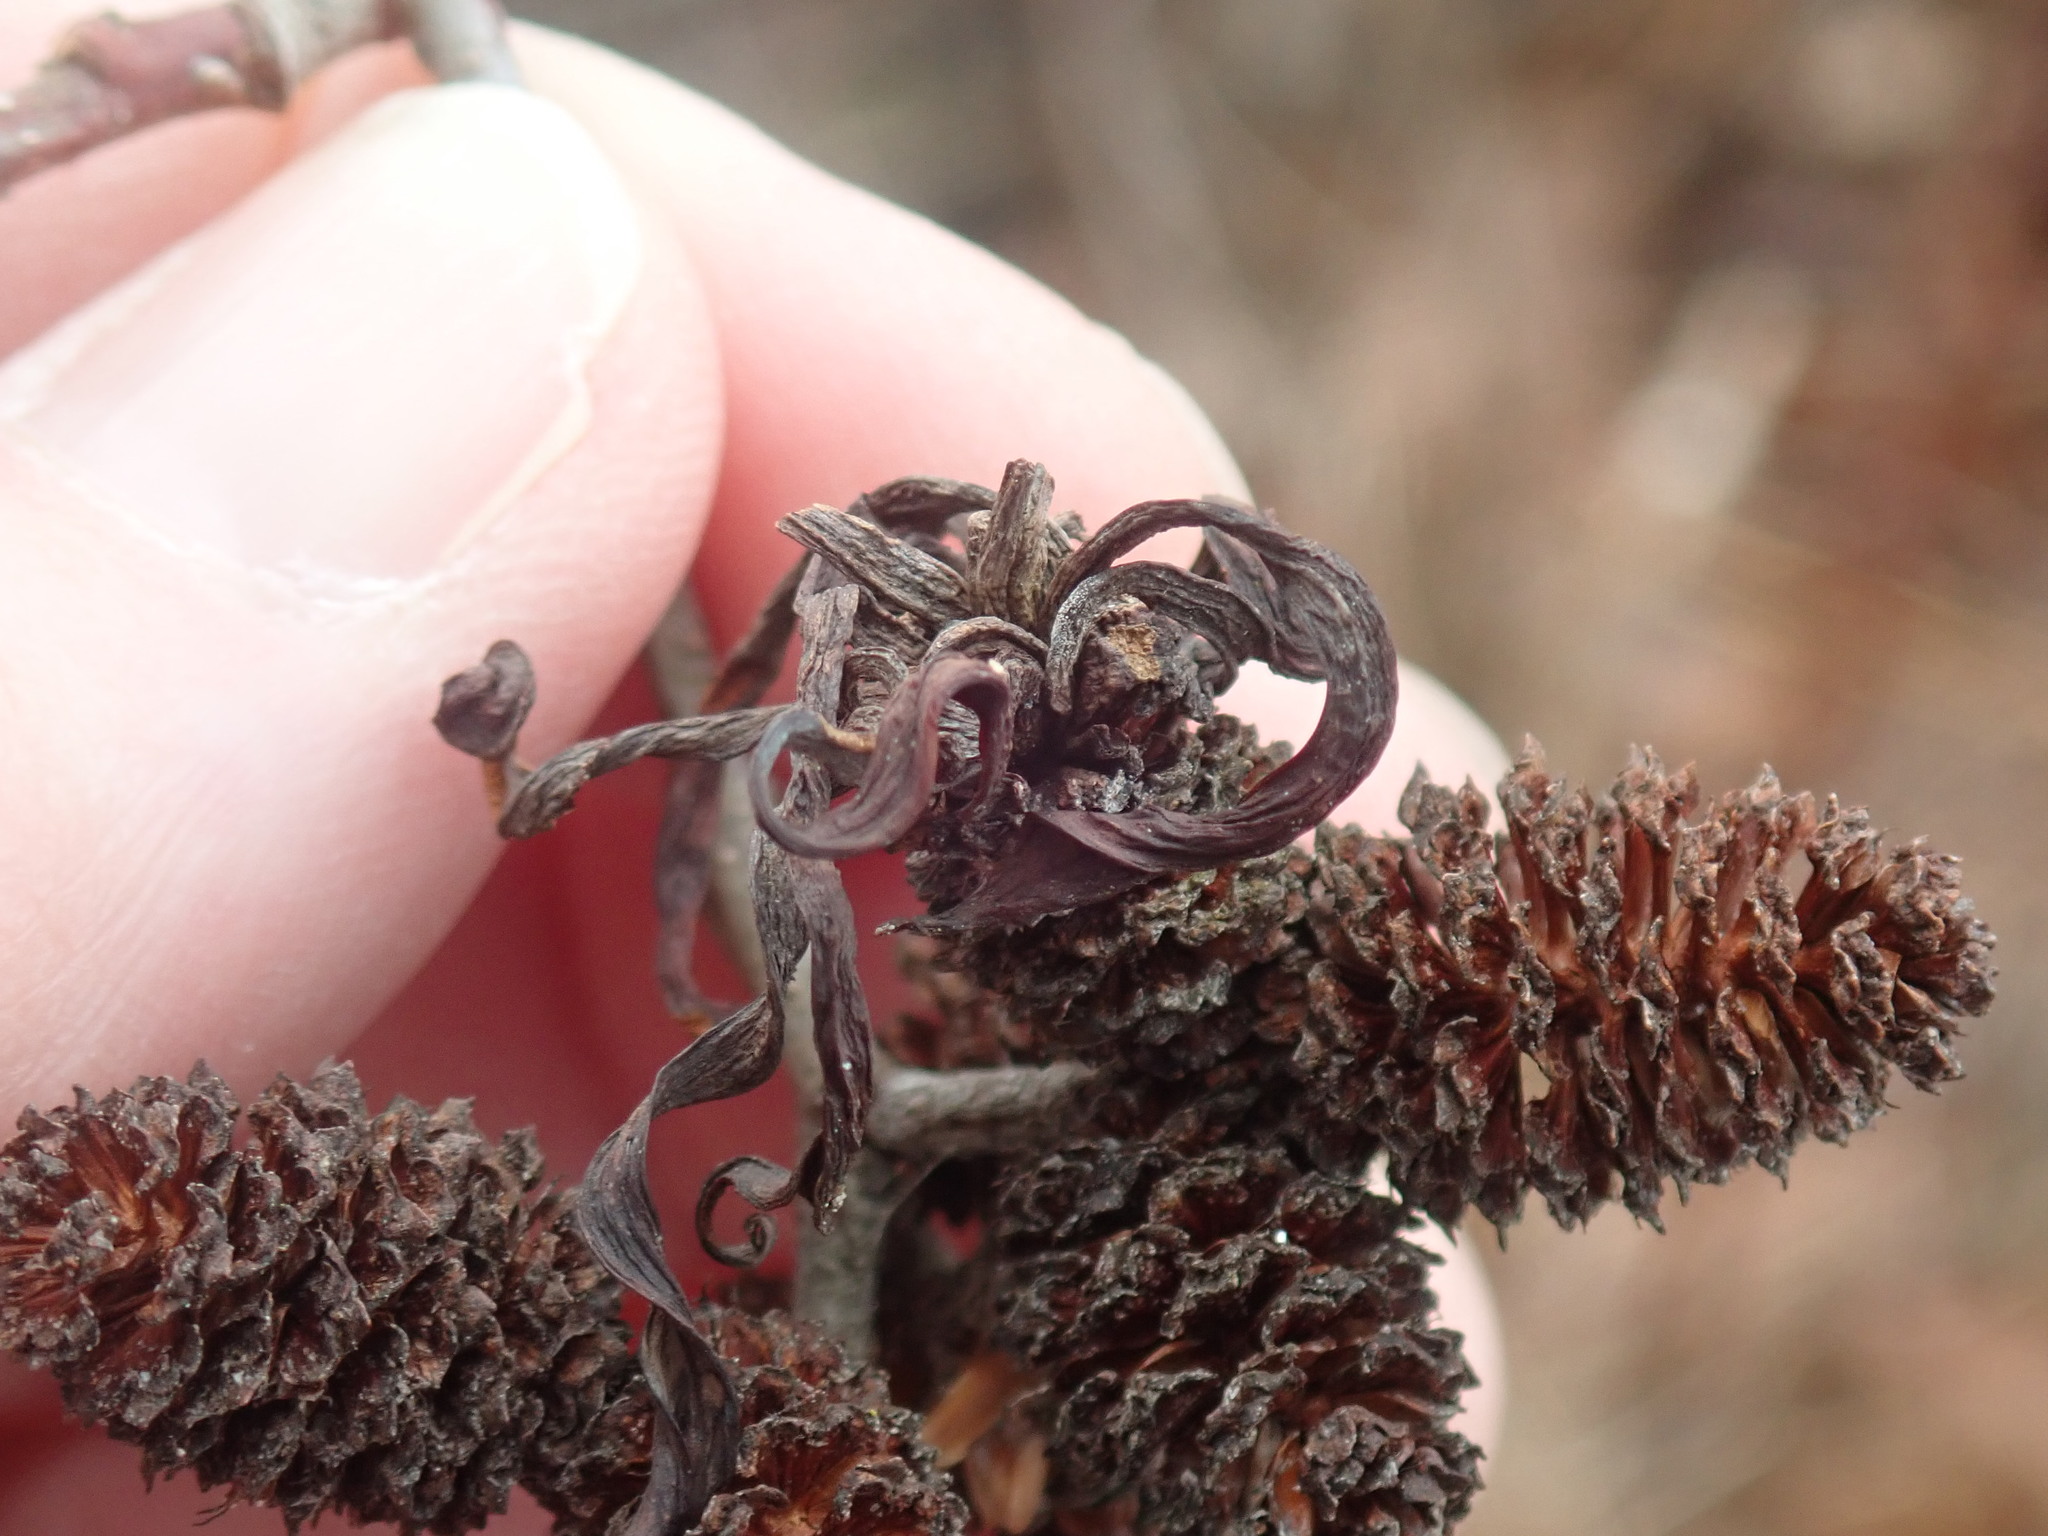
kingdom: Fungi
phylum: Ascomycota
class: Taphrinomycetes
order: Taphrinales
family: Taphrinaceae
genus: Taphrina
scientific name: Taphrina robinsoniana
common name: Eastern american alder tongue gall fungus
